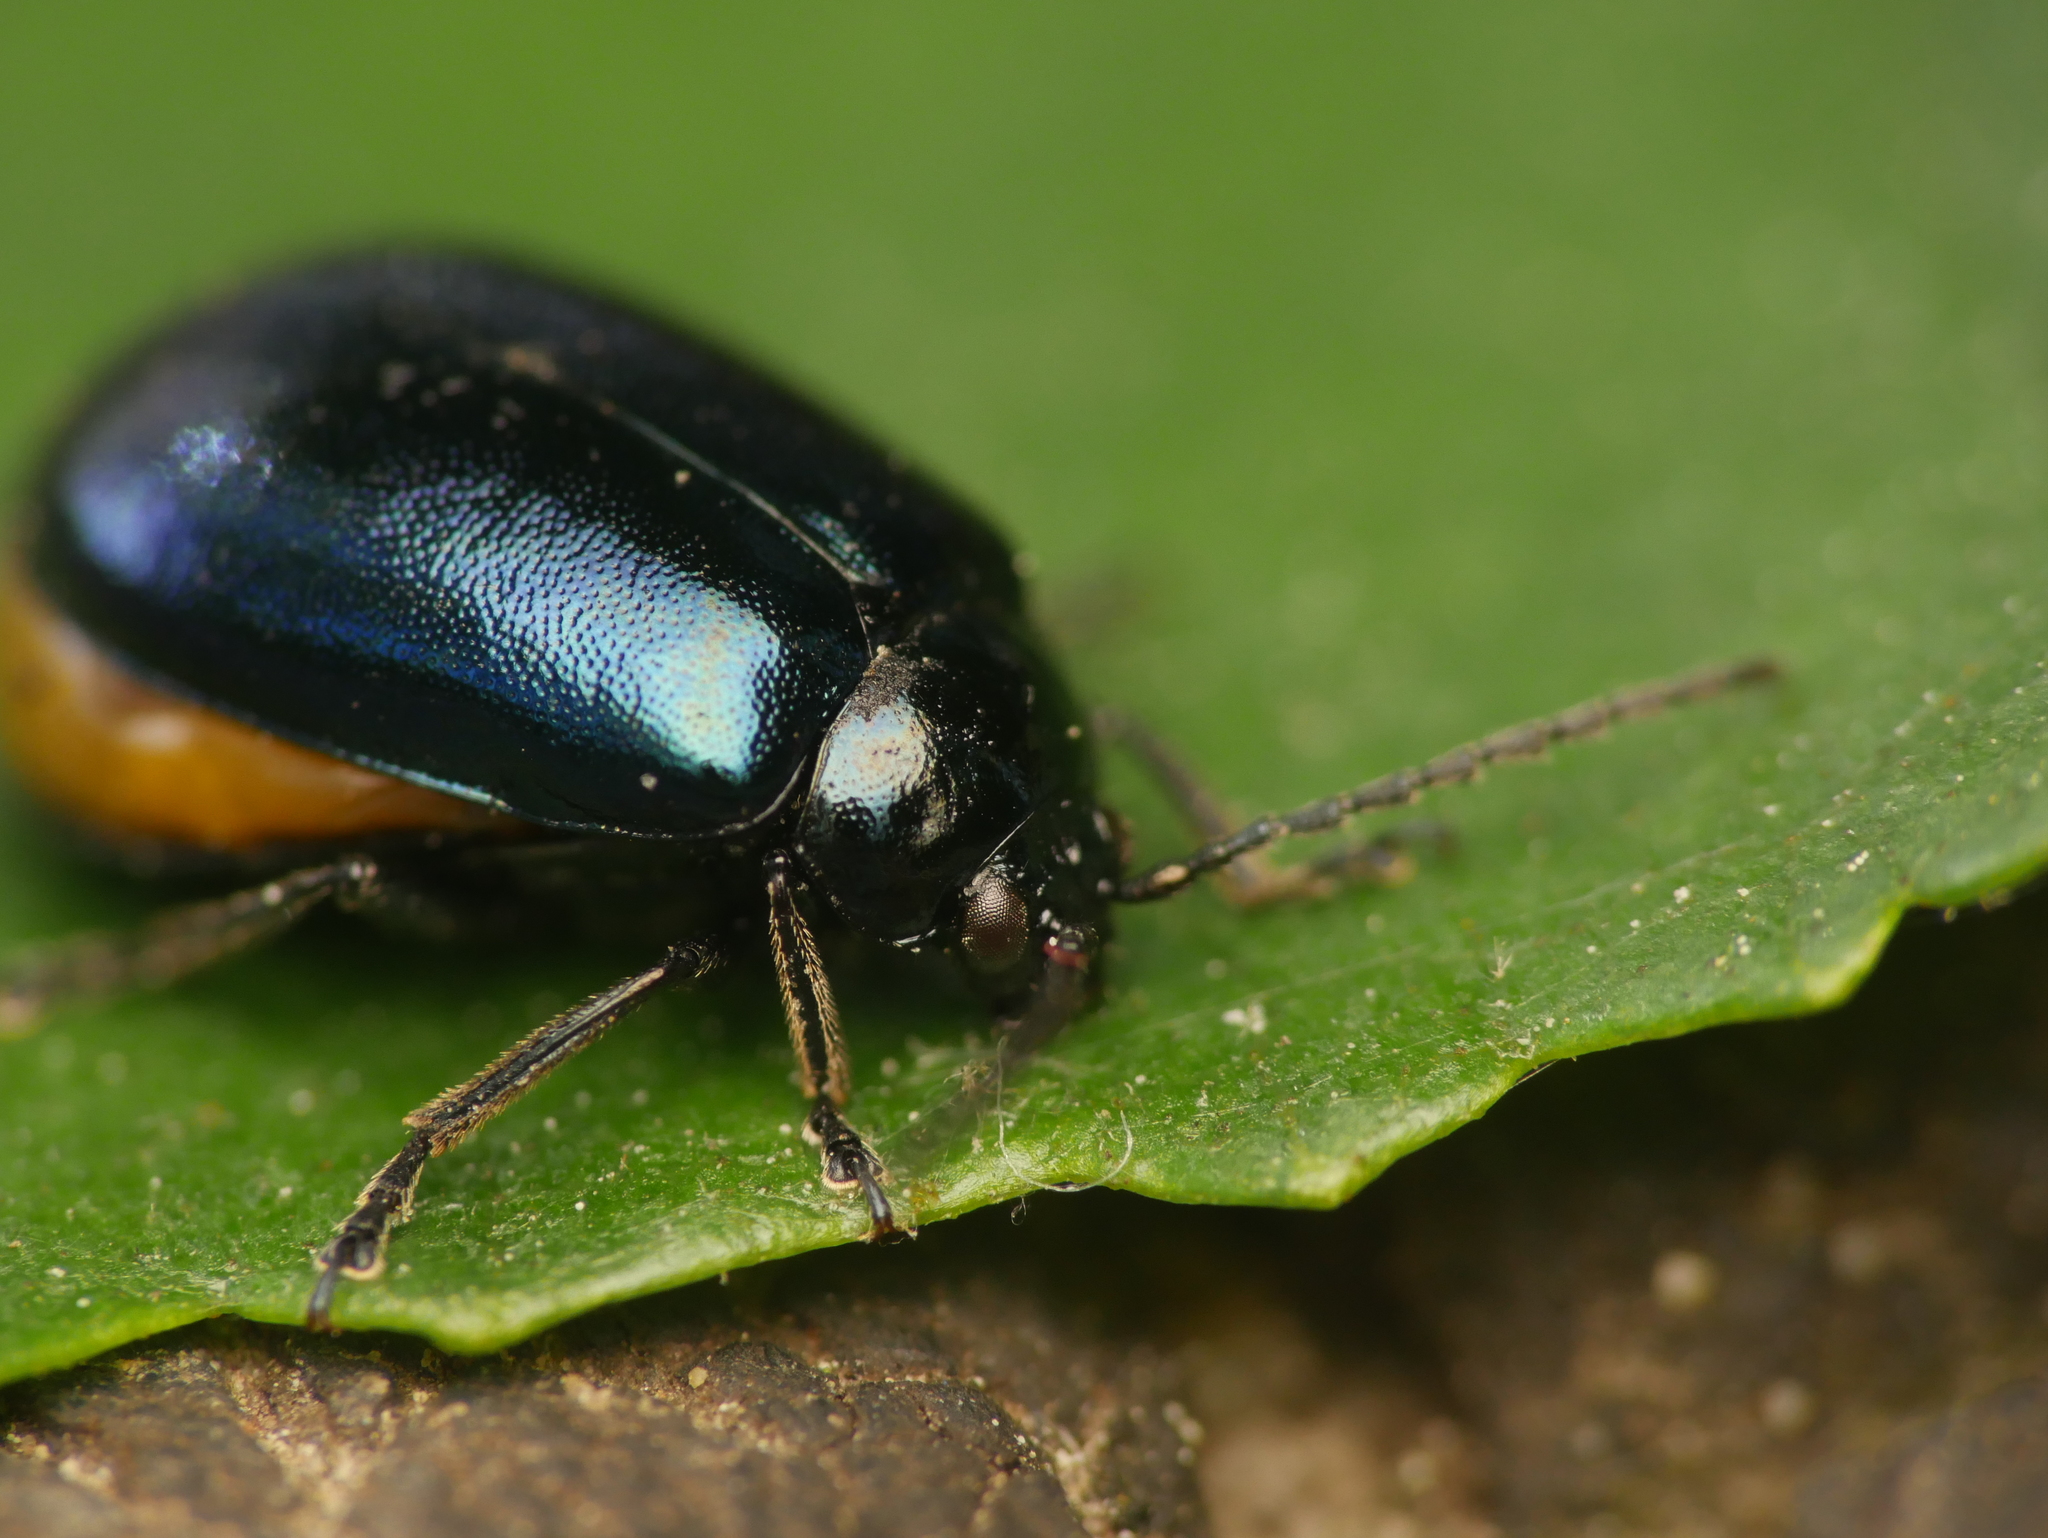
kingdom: Animalia
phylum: Arthropoda
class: Insecta
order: Coleoptera
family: Chrysomelidae
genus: Agelastica
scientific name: Agelastica alni
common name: Alder leaf beetle
